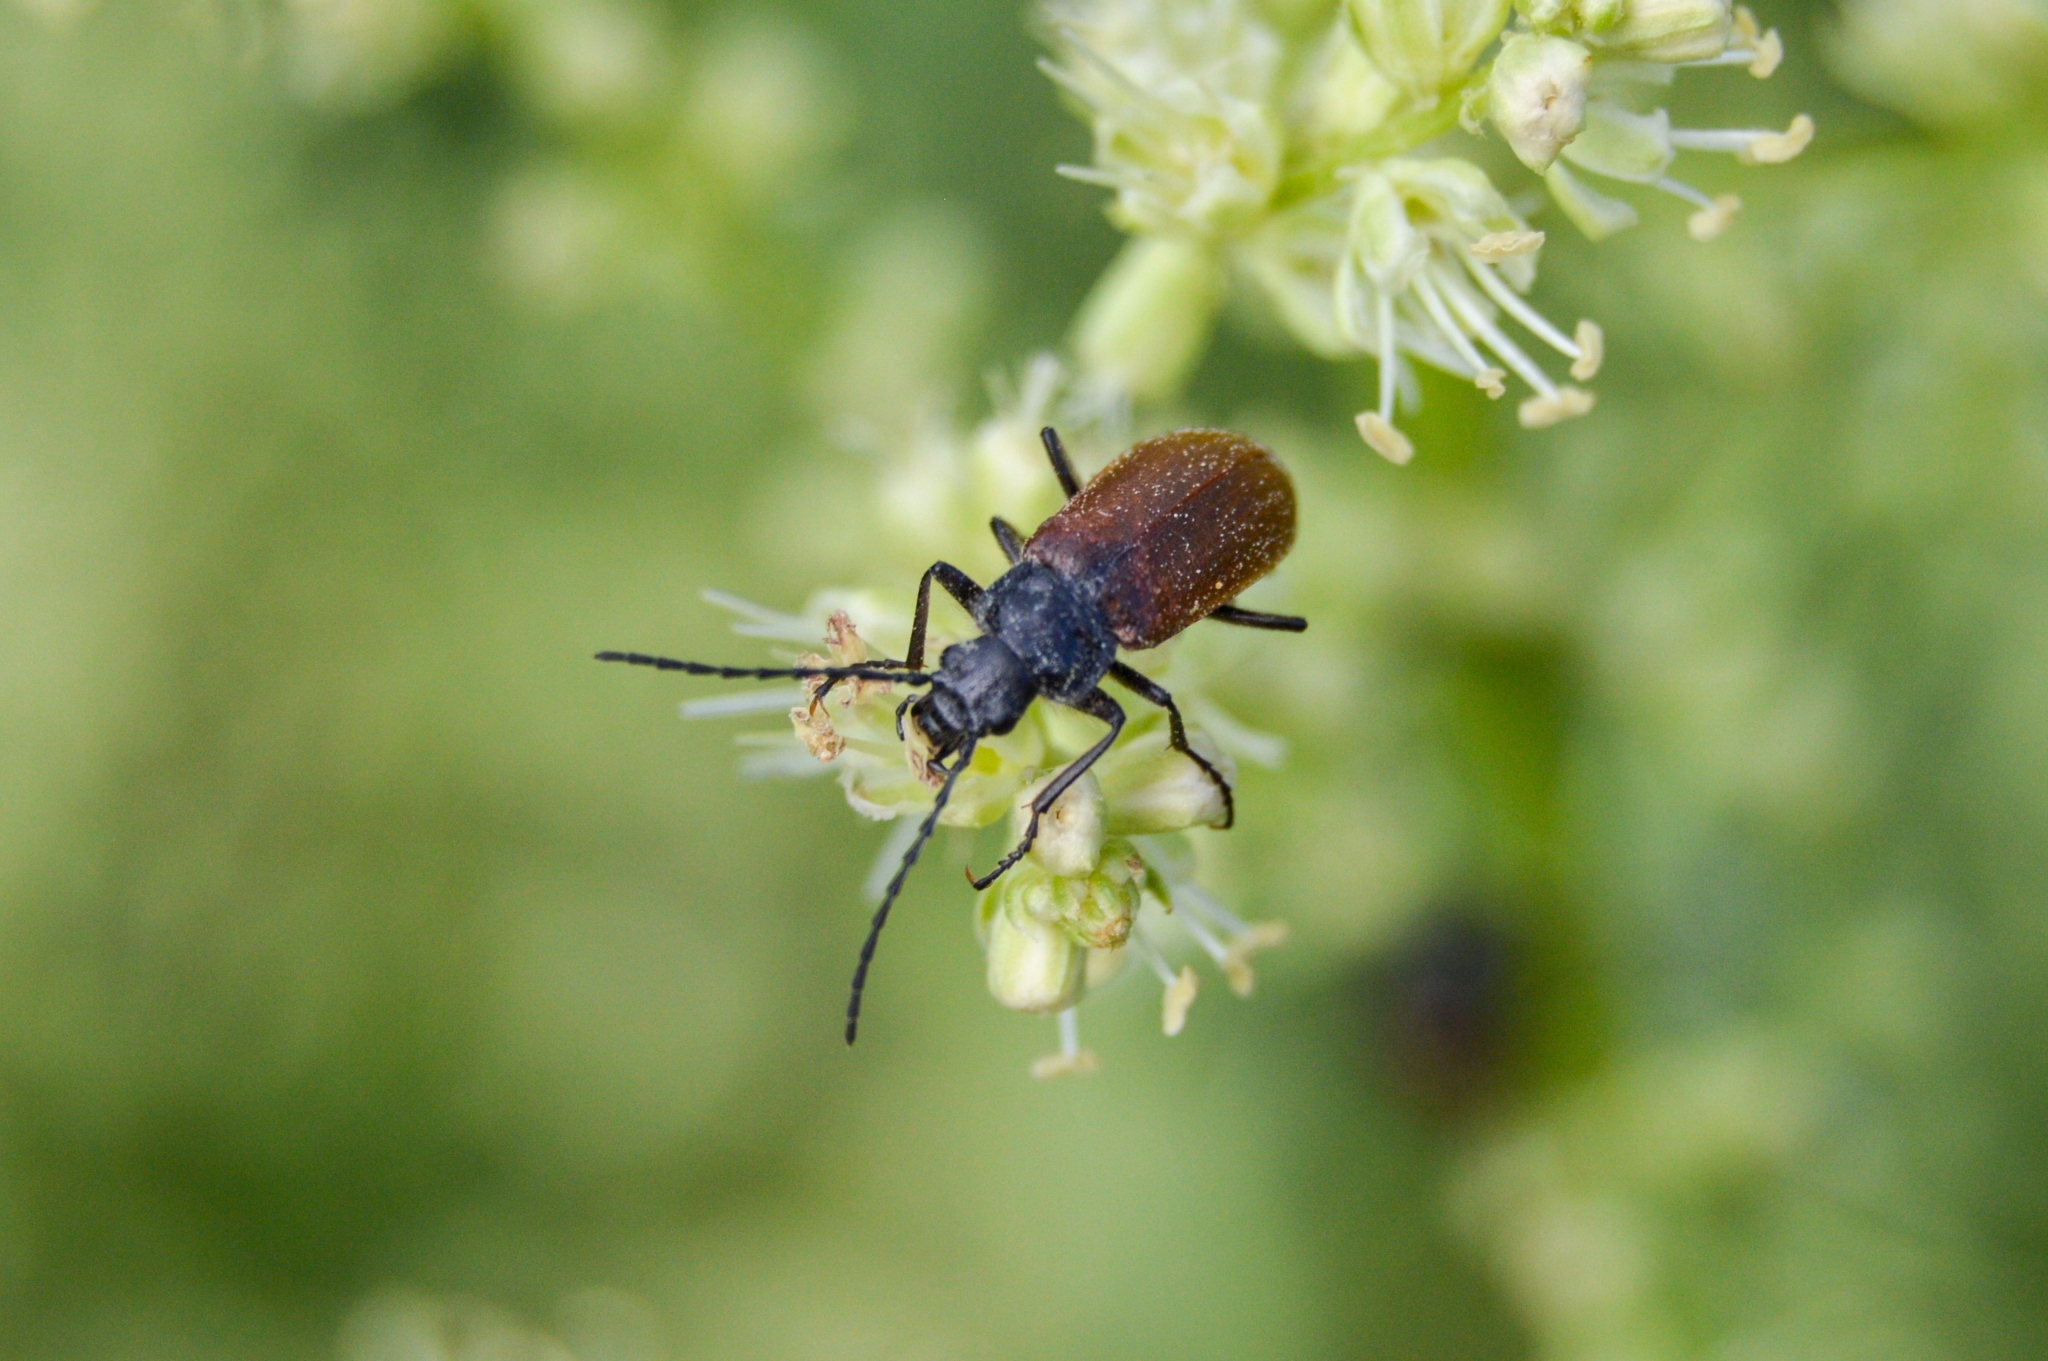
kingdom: Animalia
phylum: Arthropoda
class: Insecta
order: Coleoptera
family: Tenebrionidae
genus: Omophlus
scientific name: Omophlus lepturoides
